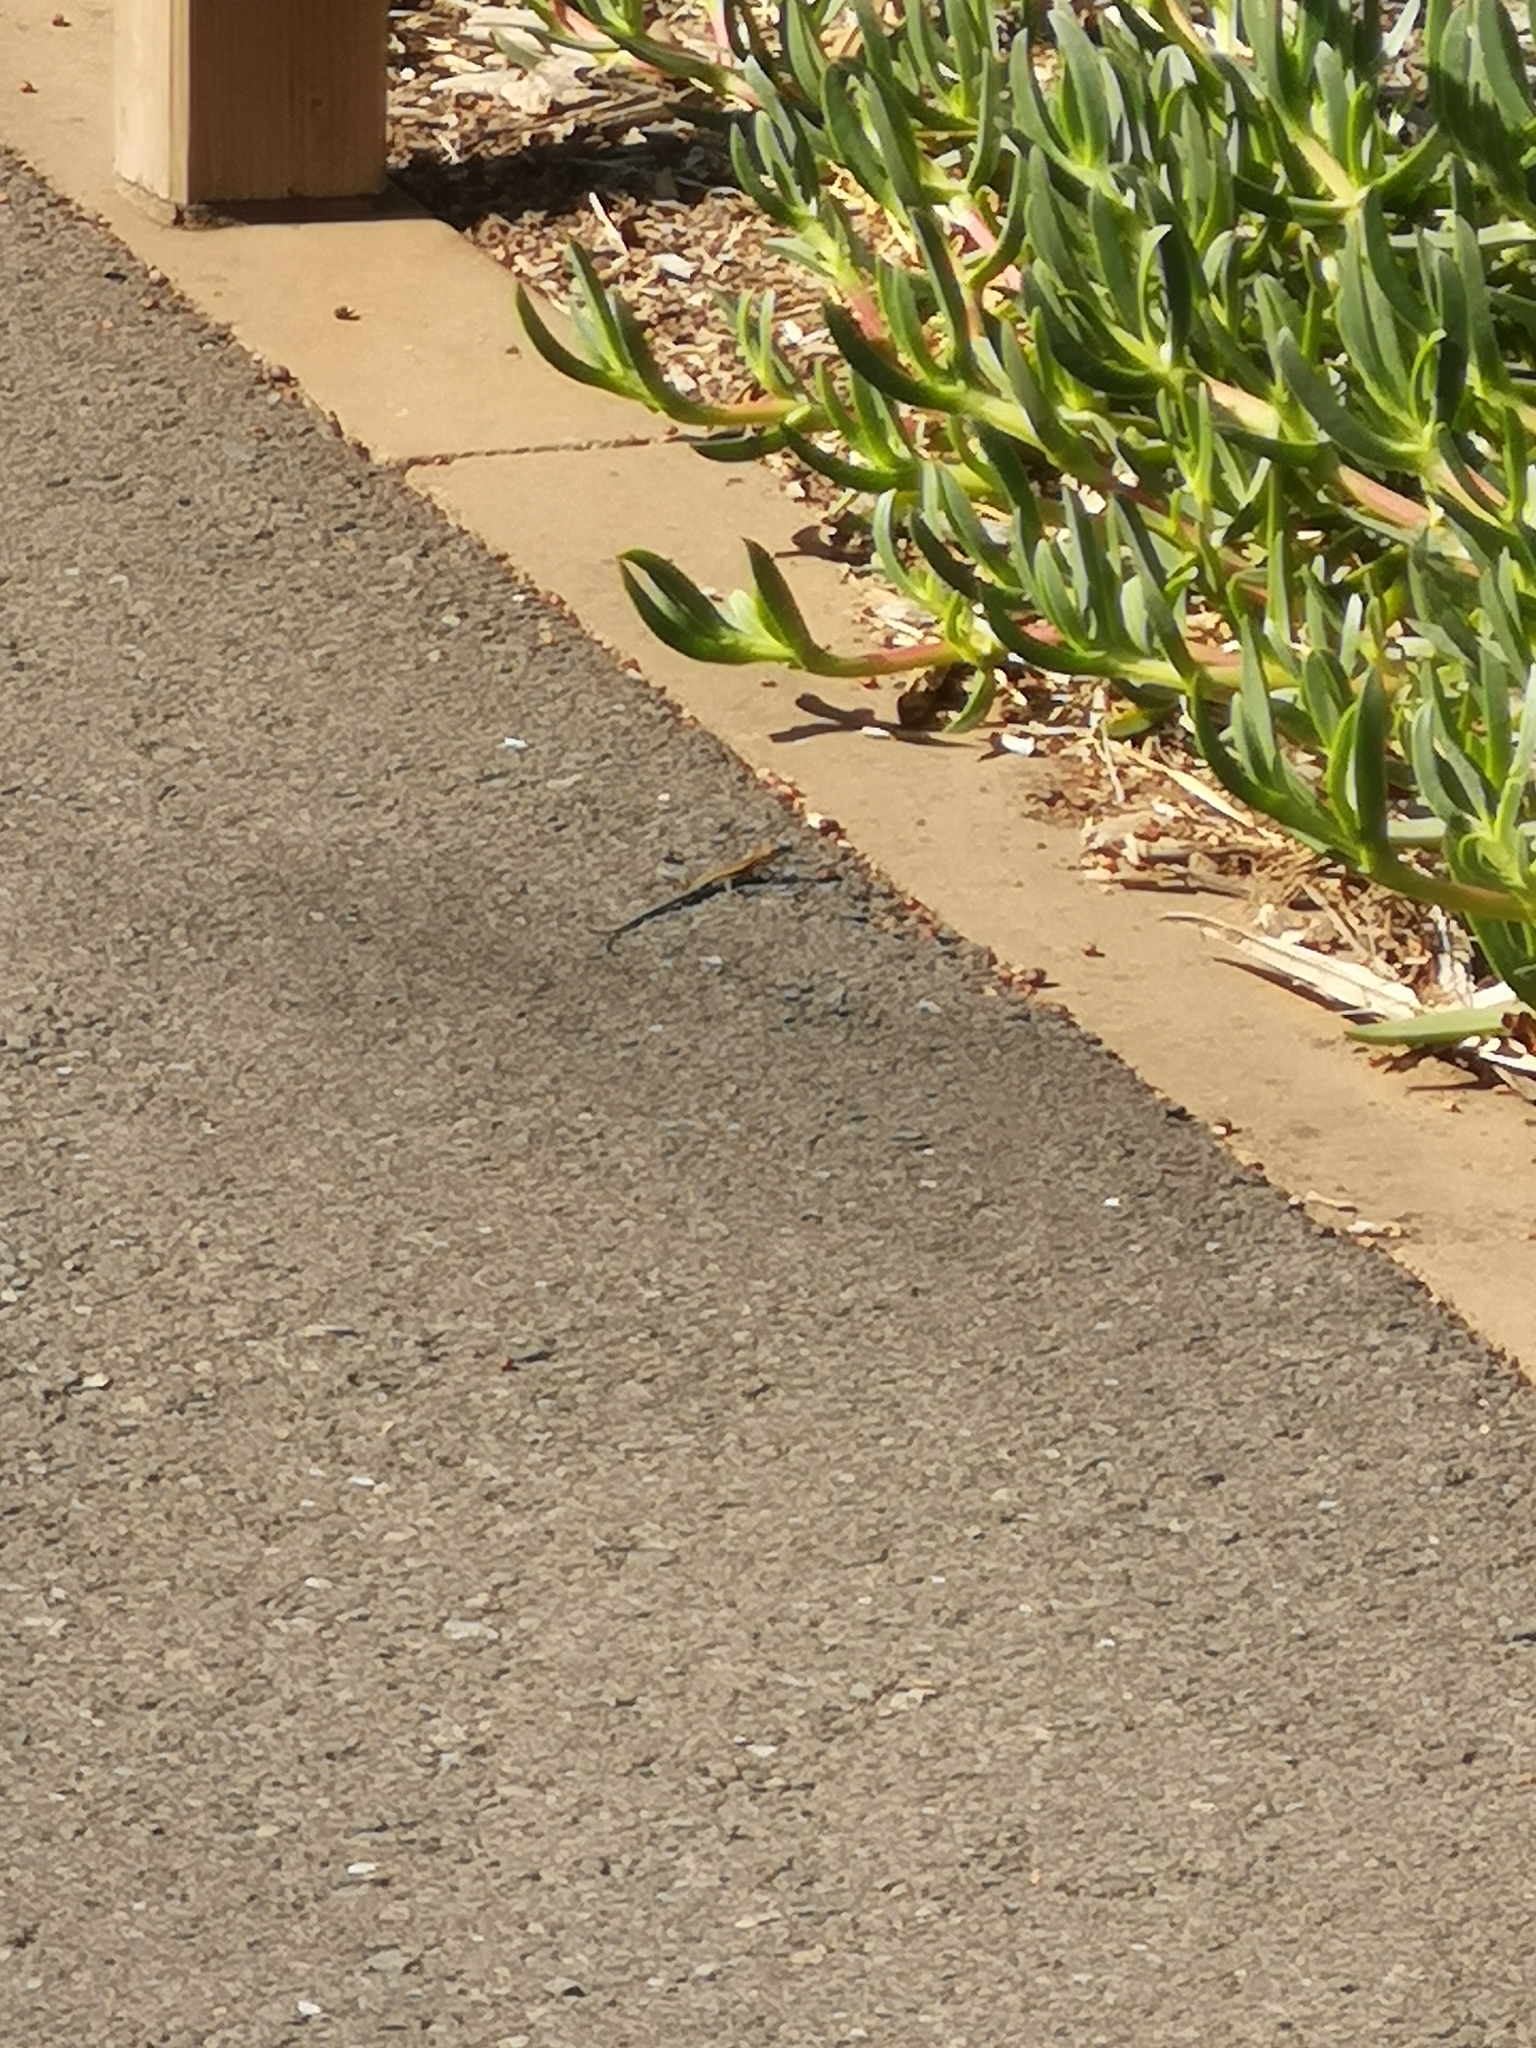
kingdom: Animalia
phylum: Chordata
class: Squamata
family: Lacertidae
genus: Gallotia
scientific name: Gallotia galloti
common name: Gallot's lizard
